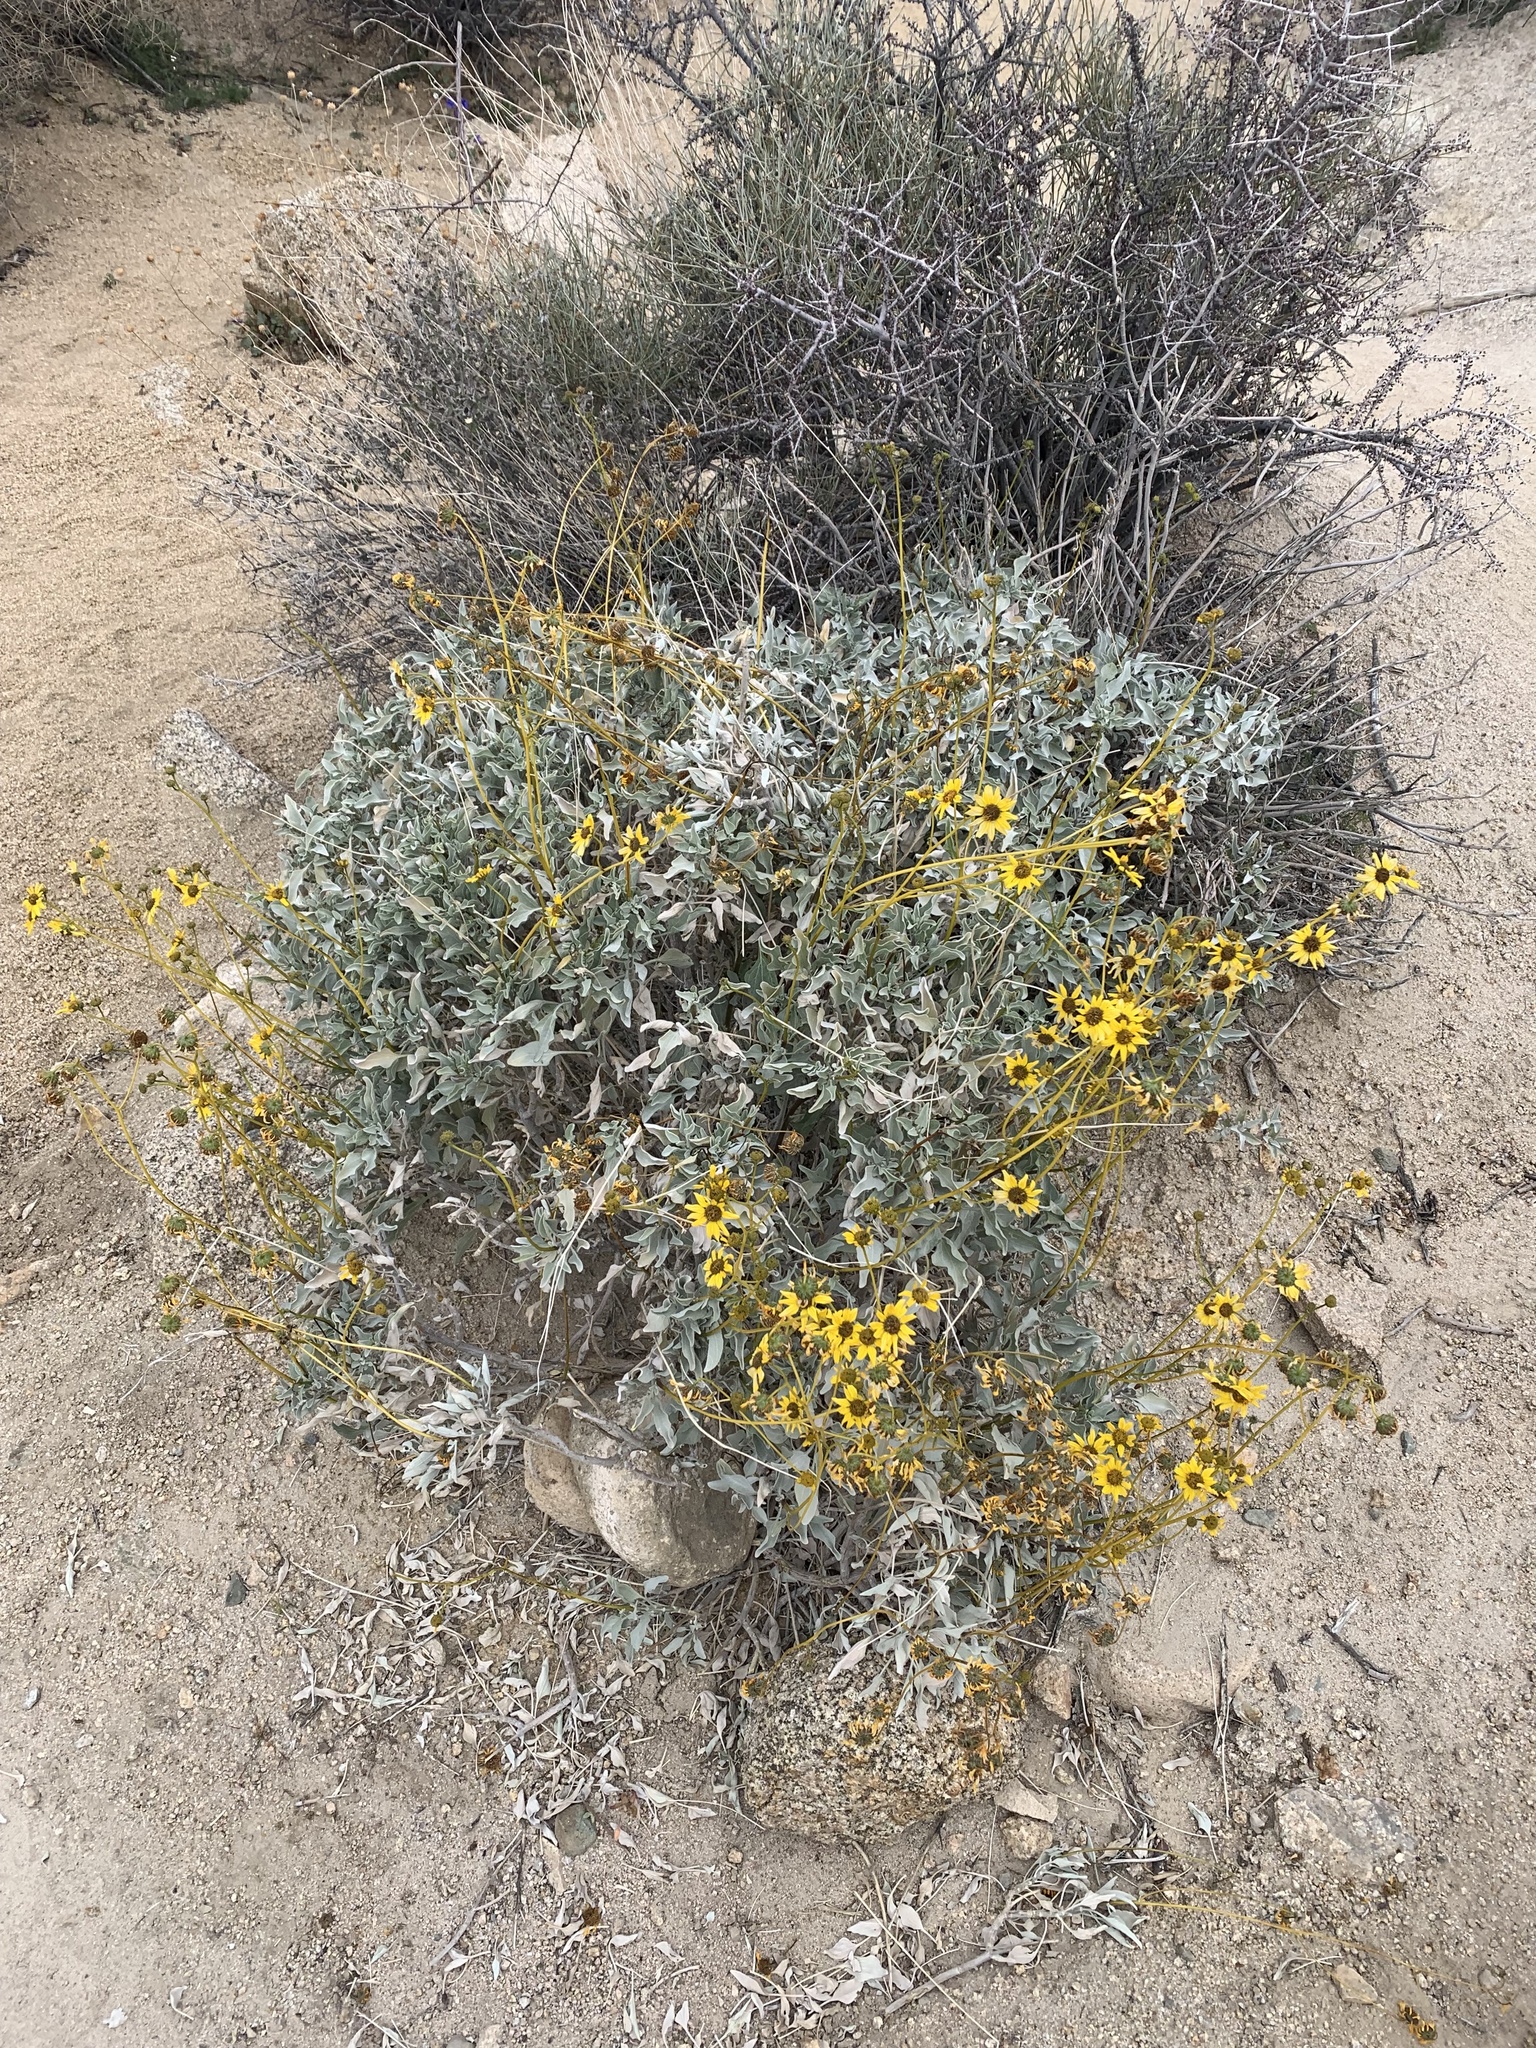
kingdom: Plantae
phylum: Tracheophyta
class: Magnoliopsida
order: Asterales
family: Asteraceae
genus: Encelia
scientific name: Encelia farinosa
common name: Brittlebush
